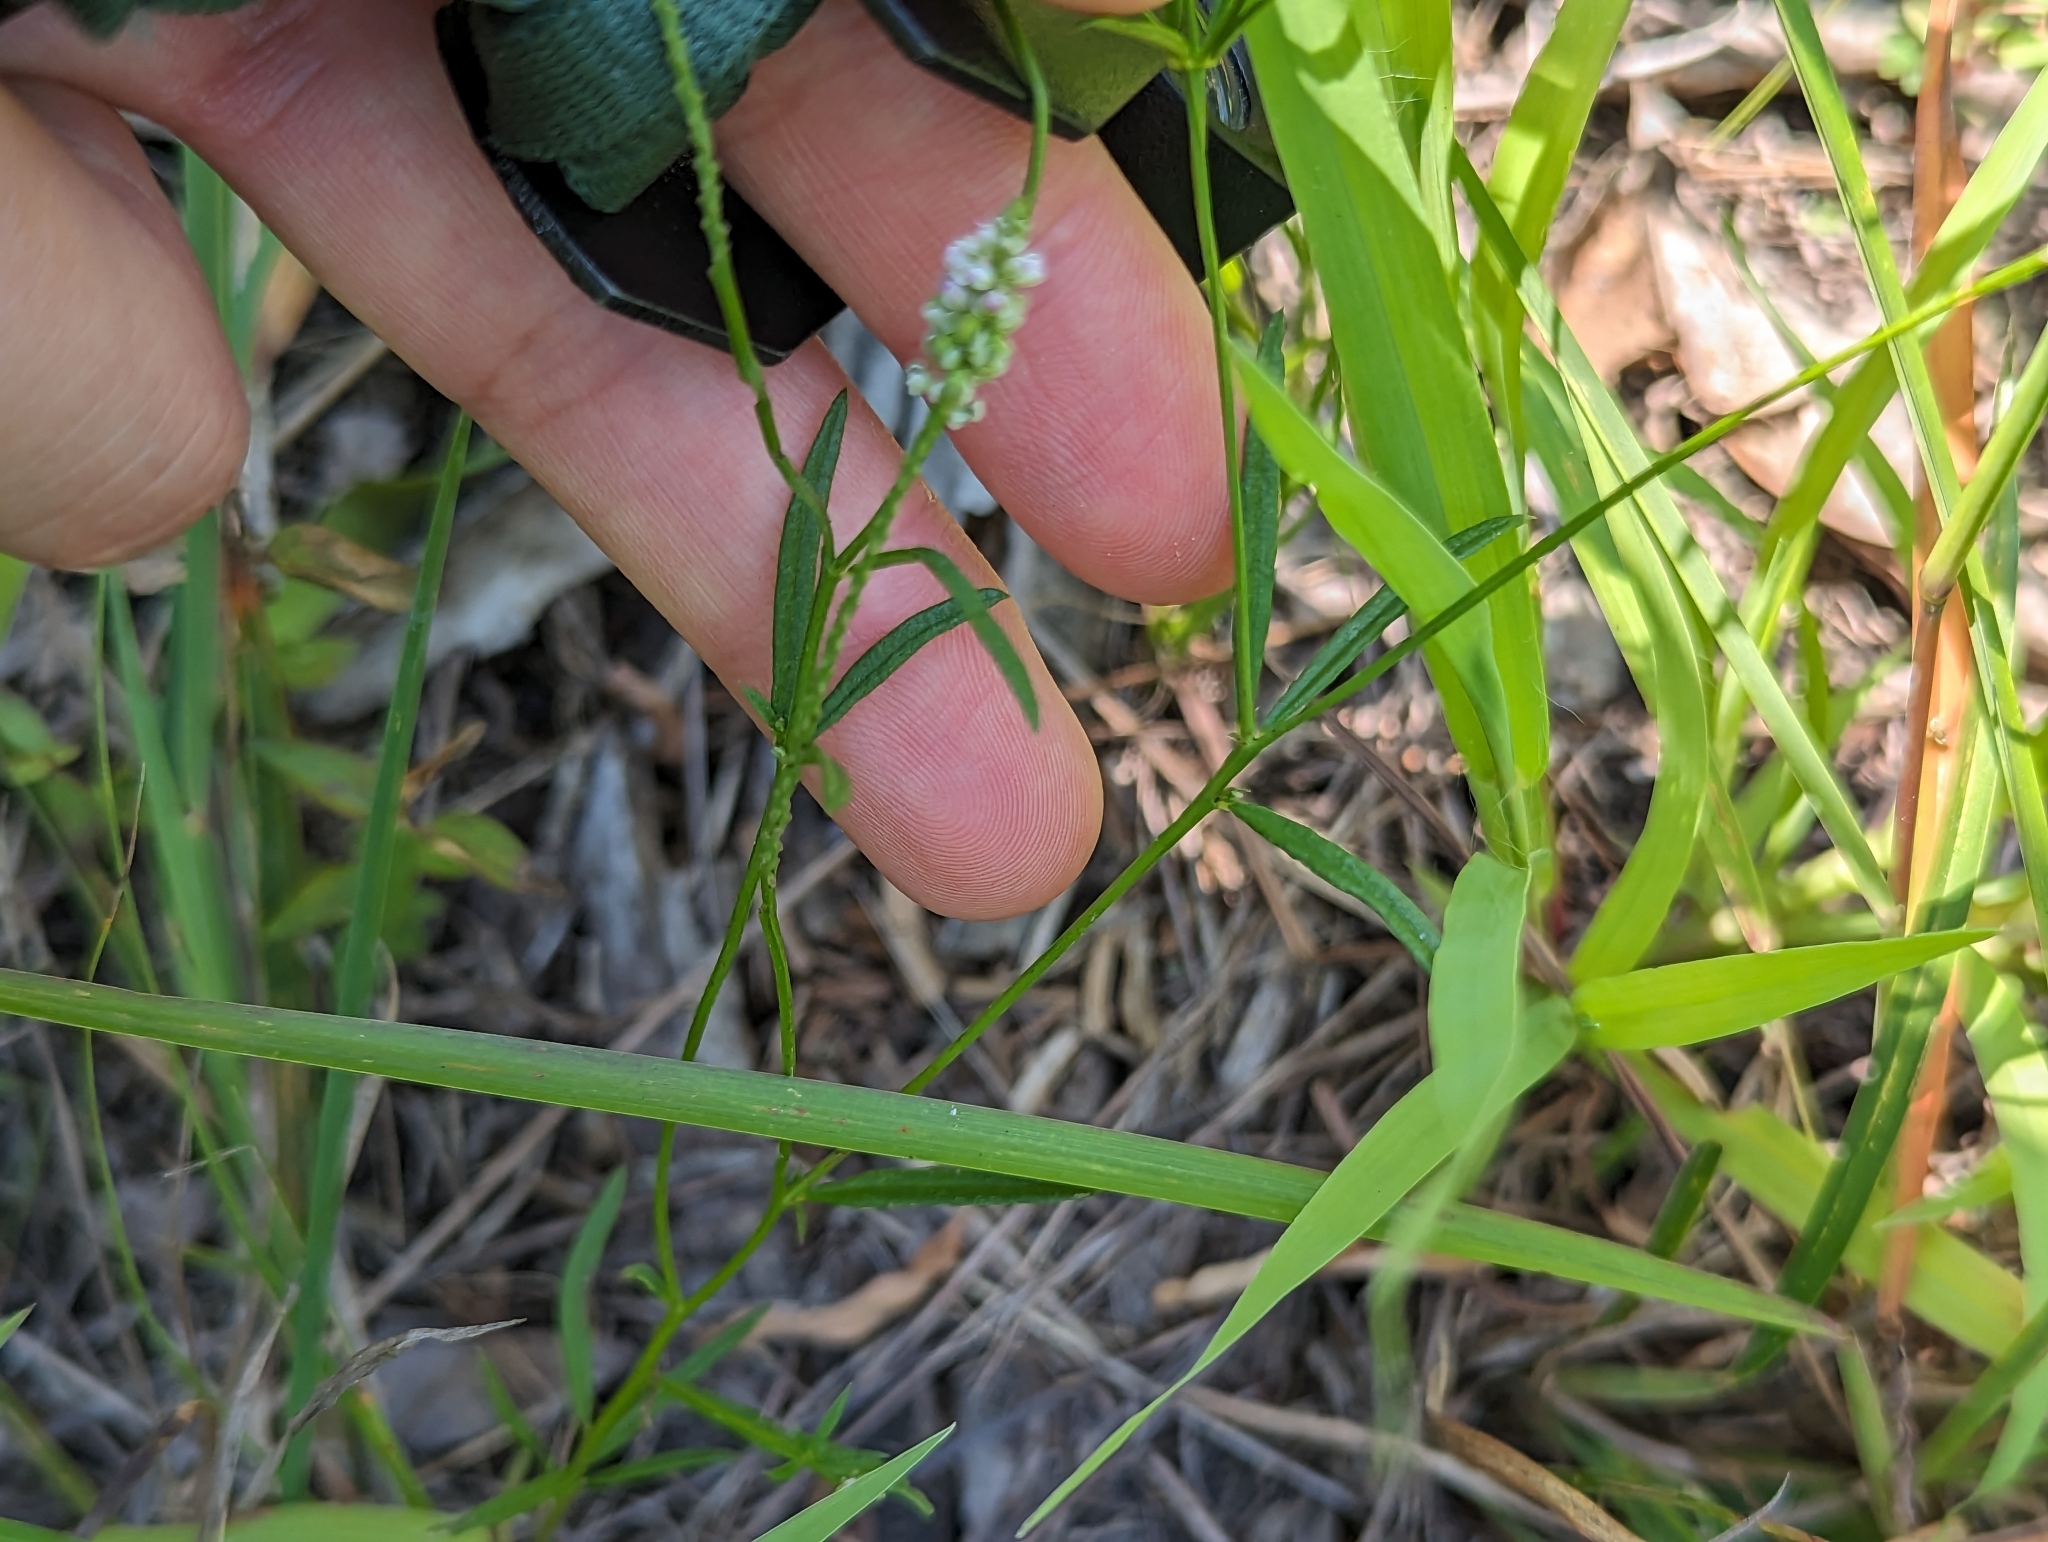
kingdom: Plantae
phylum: Tracheophyta
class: Magnoliopsida
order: Fabales
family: Polygalaceae
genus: Polygala
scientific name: Polygala verticillata
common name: Whorl milkwort
